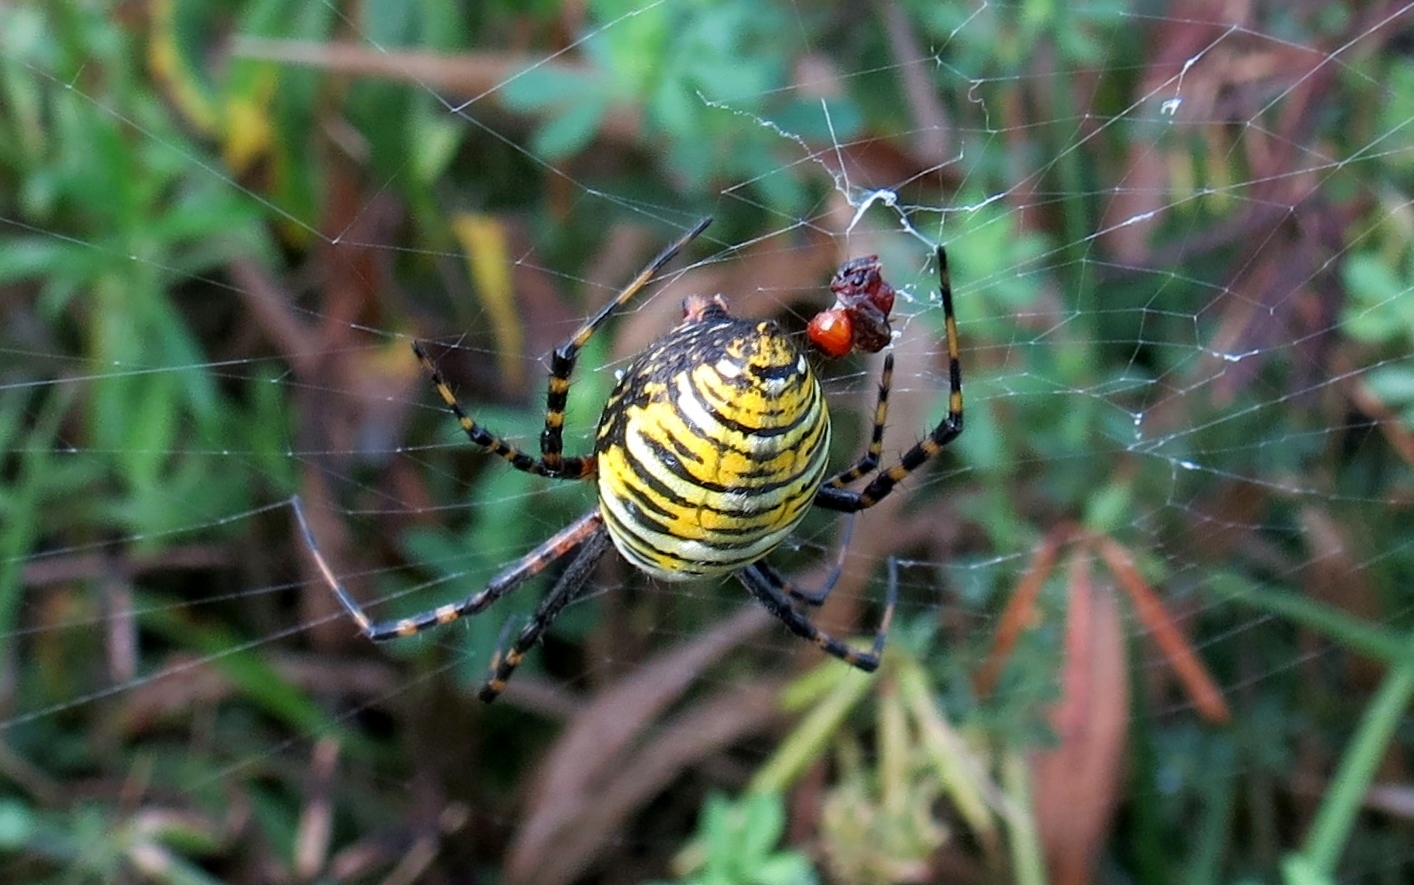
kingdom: Animalia
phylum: Arthropoda
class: Arachnida
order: Araneae
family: Araneidae
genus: Argiope
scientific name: Argiope trifasciata
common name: Banded garden spider
